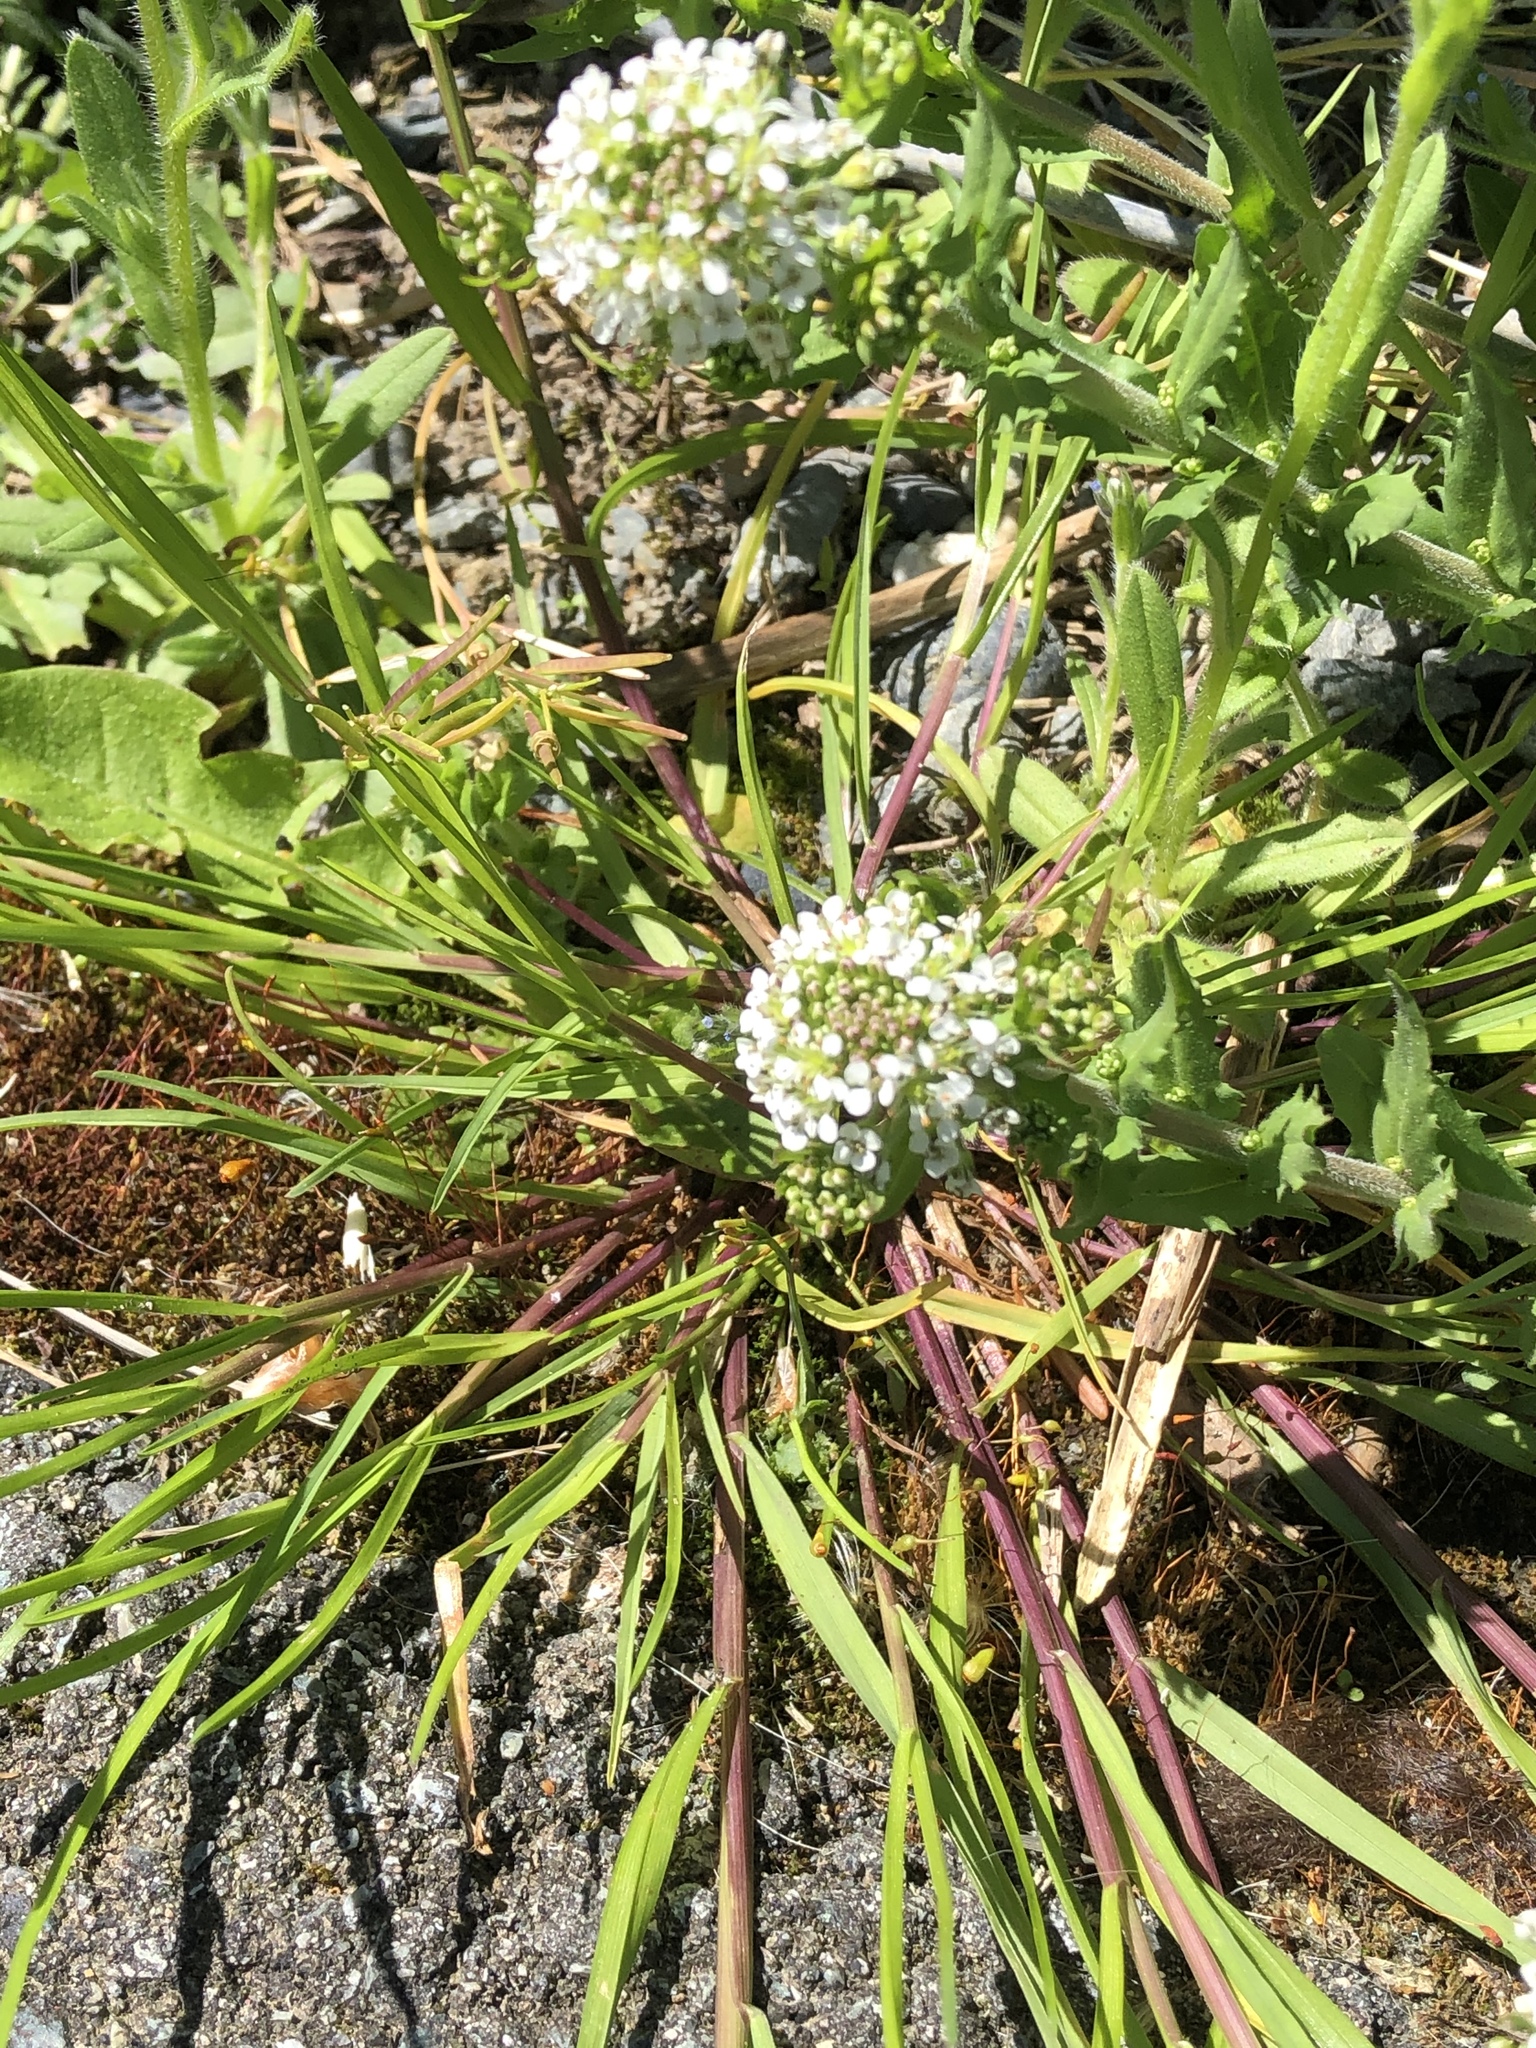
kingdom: Plantae
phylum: Tracheophyta
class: Magnoliopsida
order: Brassicales
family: Brassicaceae
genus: Lepidium
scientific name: Lepidium heterophyllum
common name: Smith's pepperwort
